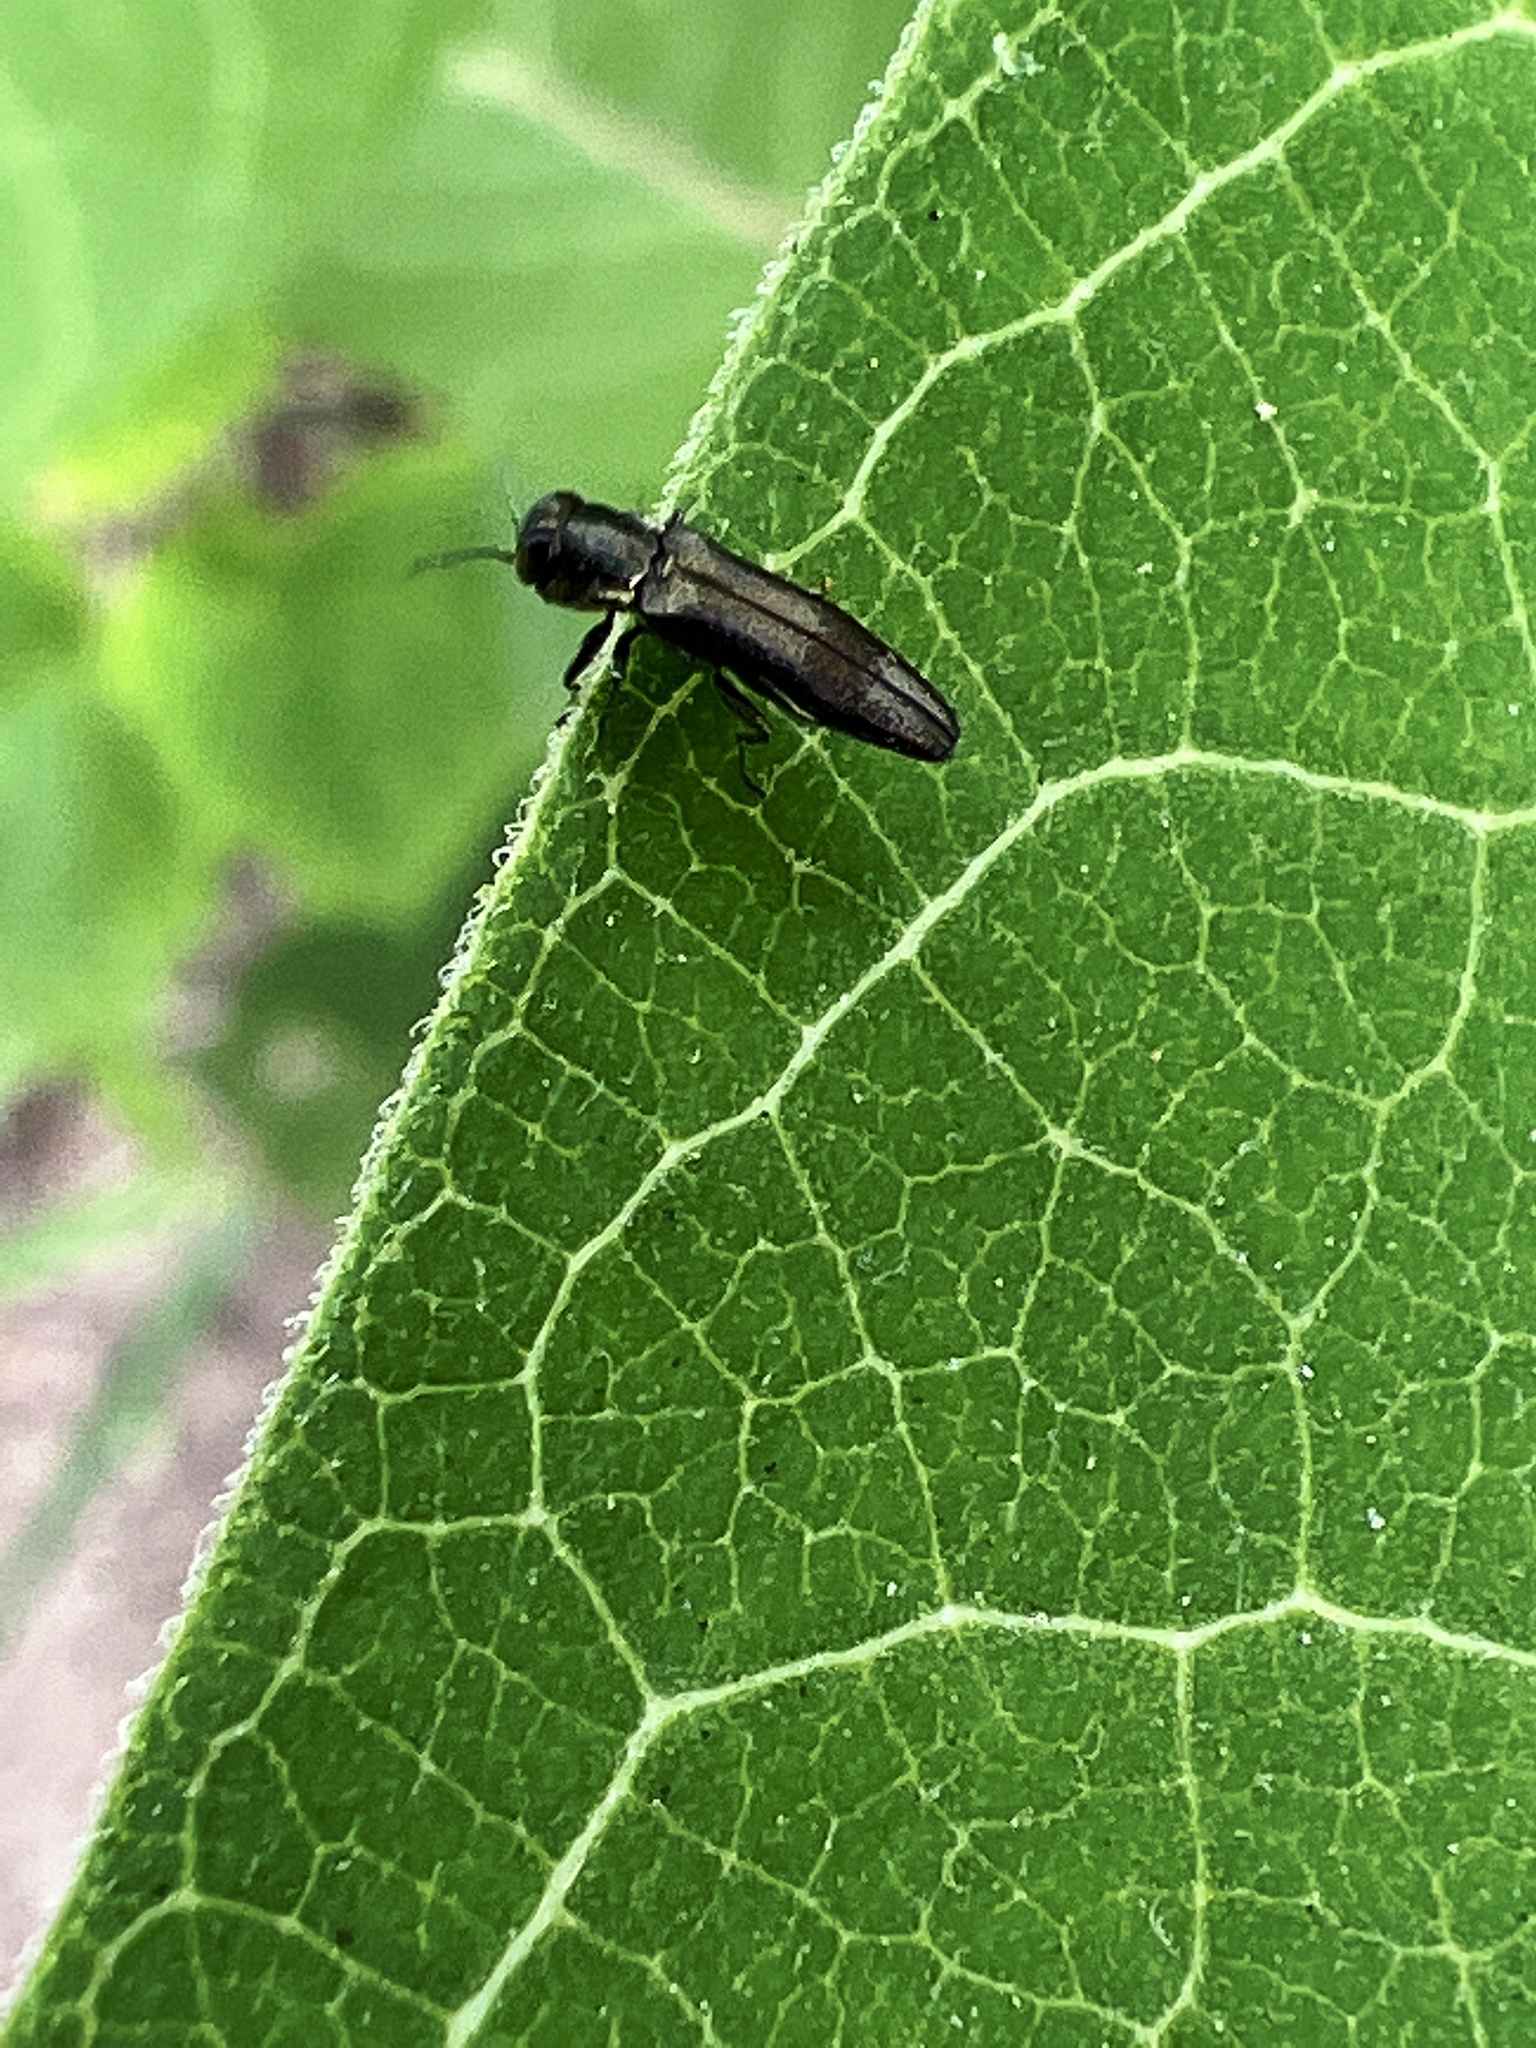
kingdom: Animalia
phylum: Arthropoda
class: Insecta
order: Coleoptera
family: Buprestidae
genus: Agrilus
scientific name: Agrilus derasofasciatus
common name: Metallic wood-boring beetle
